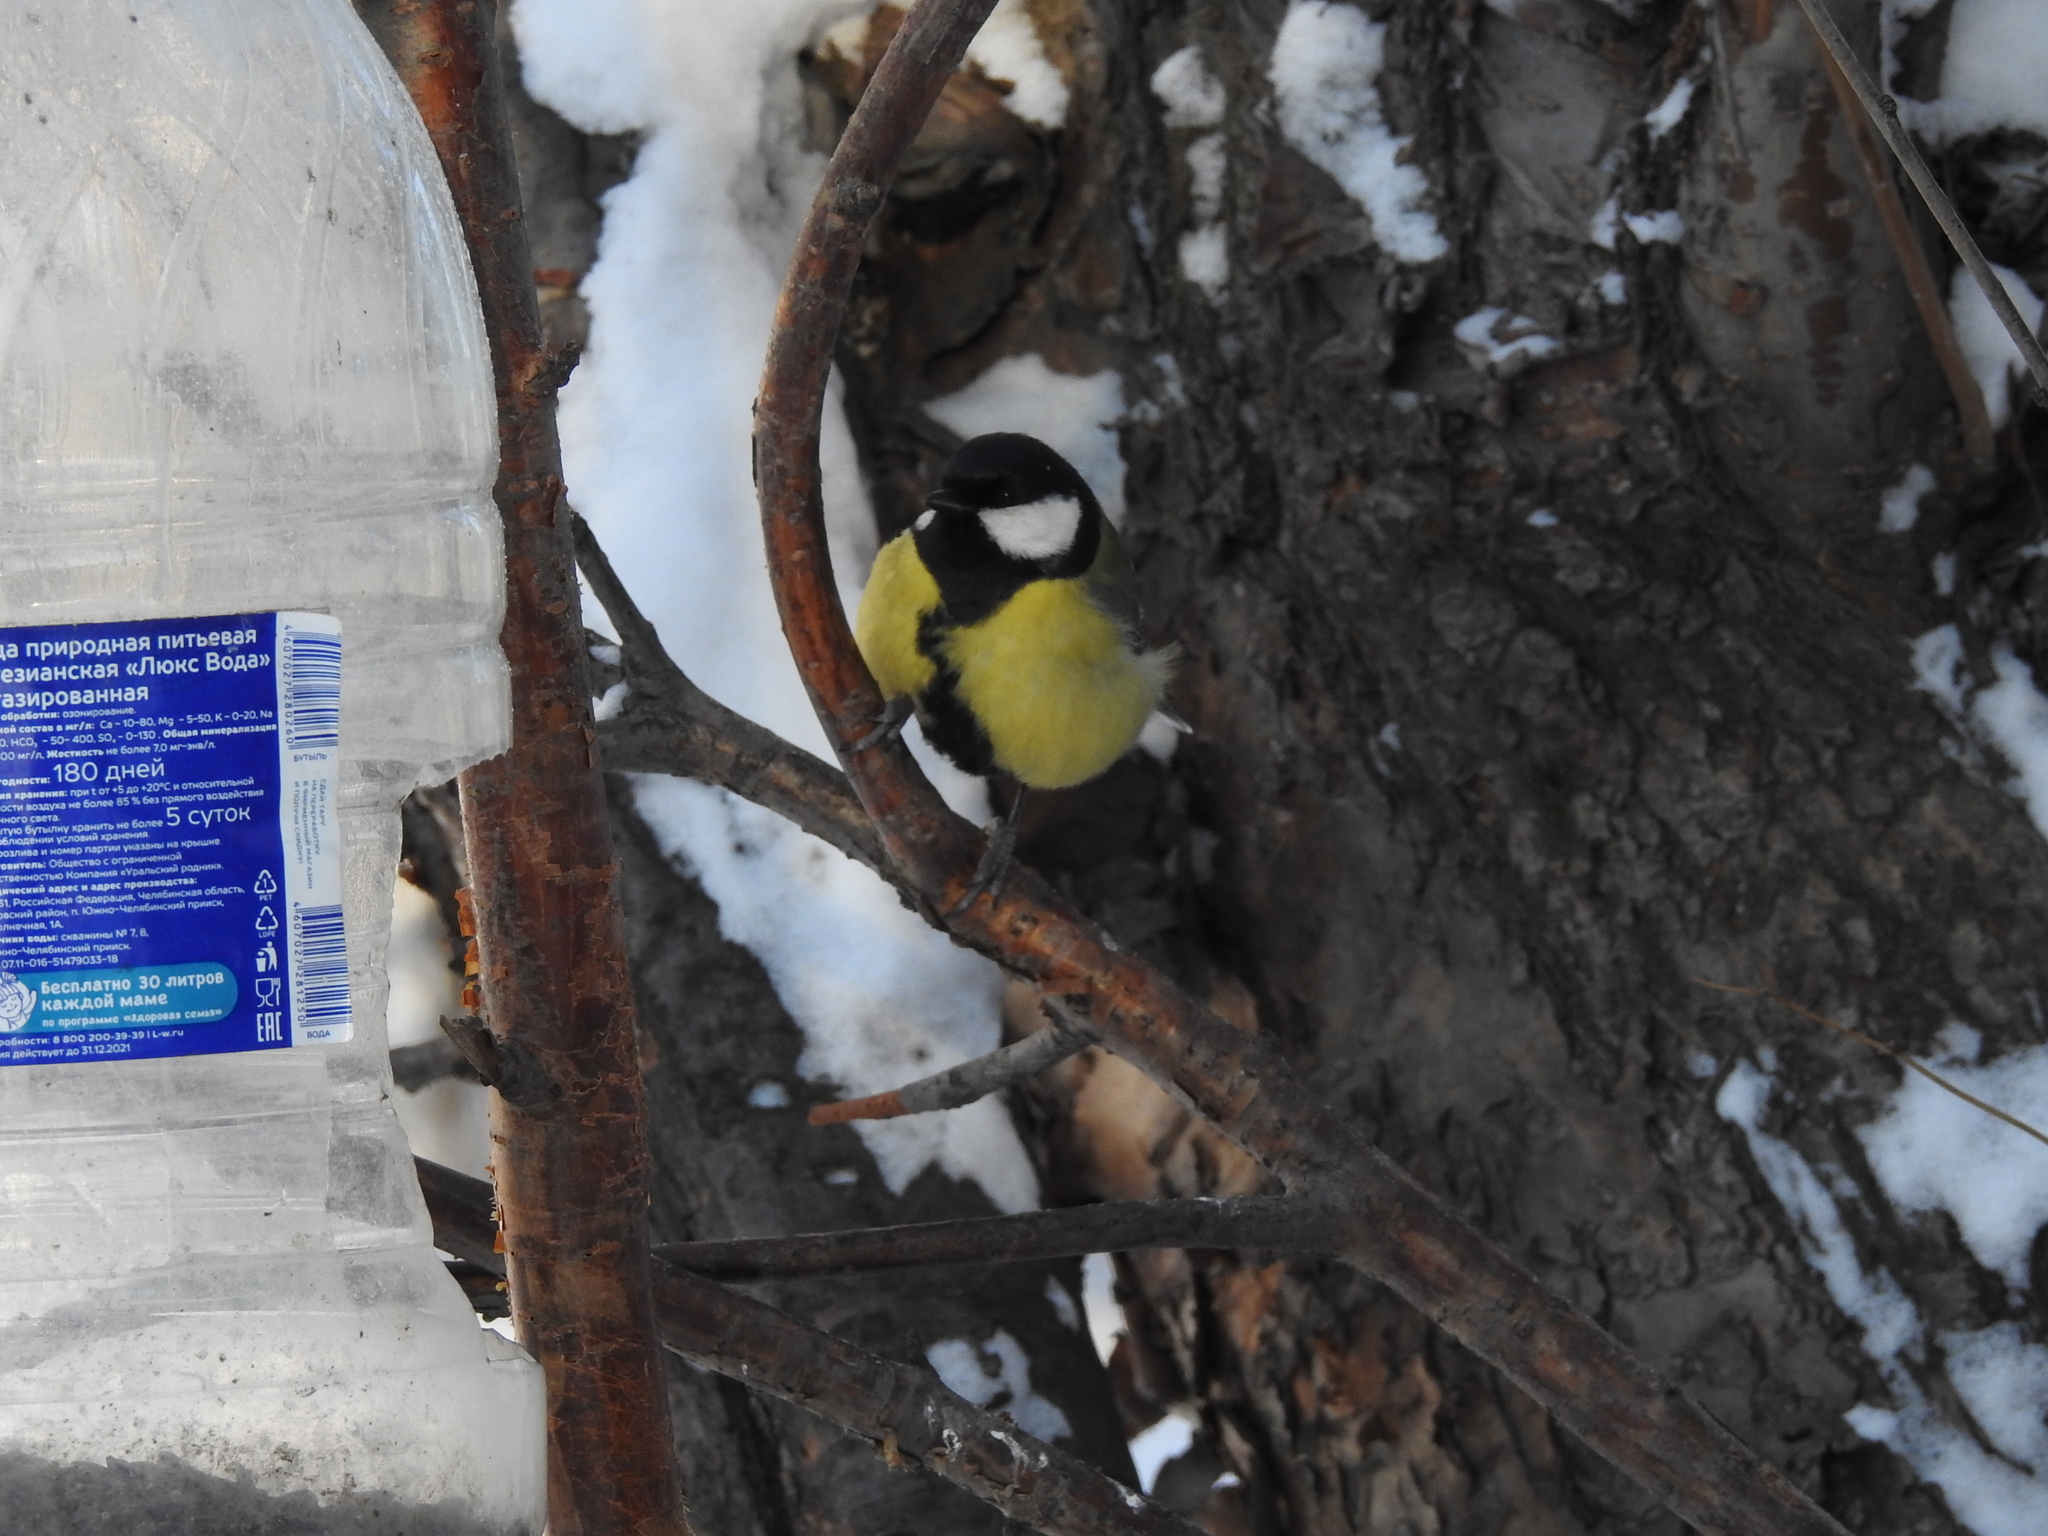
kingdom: Animalia
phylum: Chordata
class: Aves
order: Passeriformes
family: Paridae
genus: Parus
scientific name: Parus major
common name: Great tit
